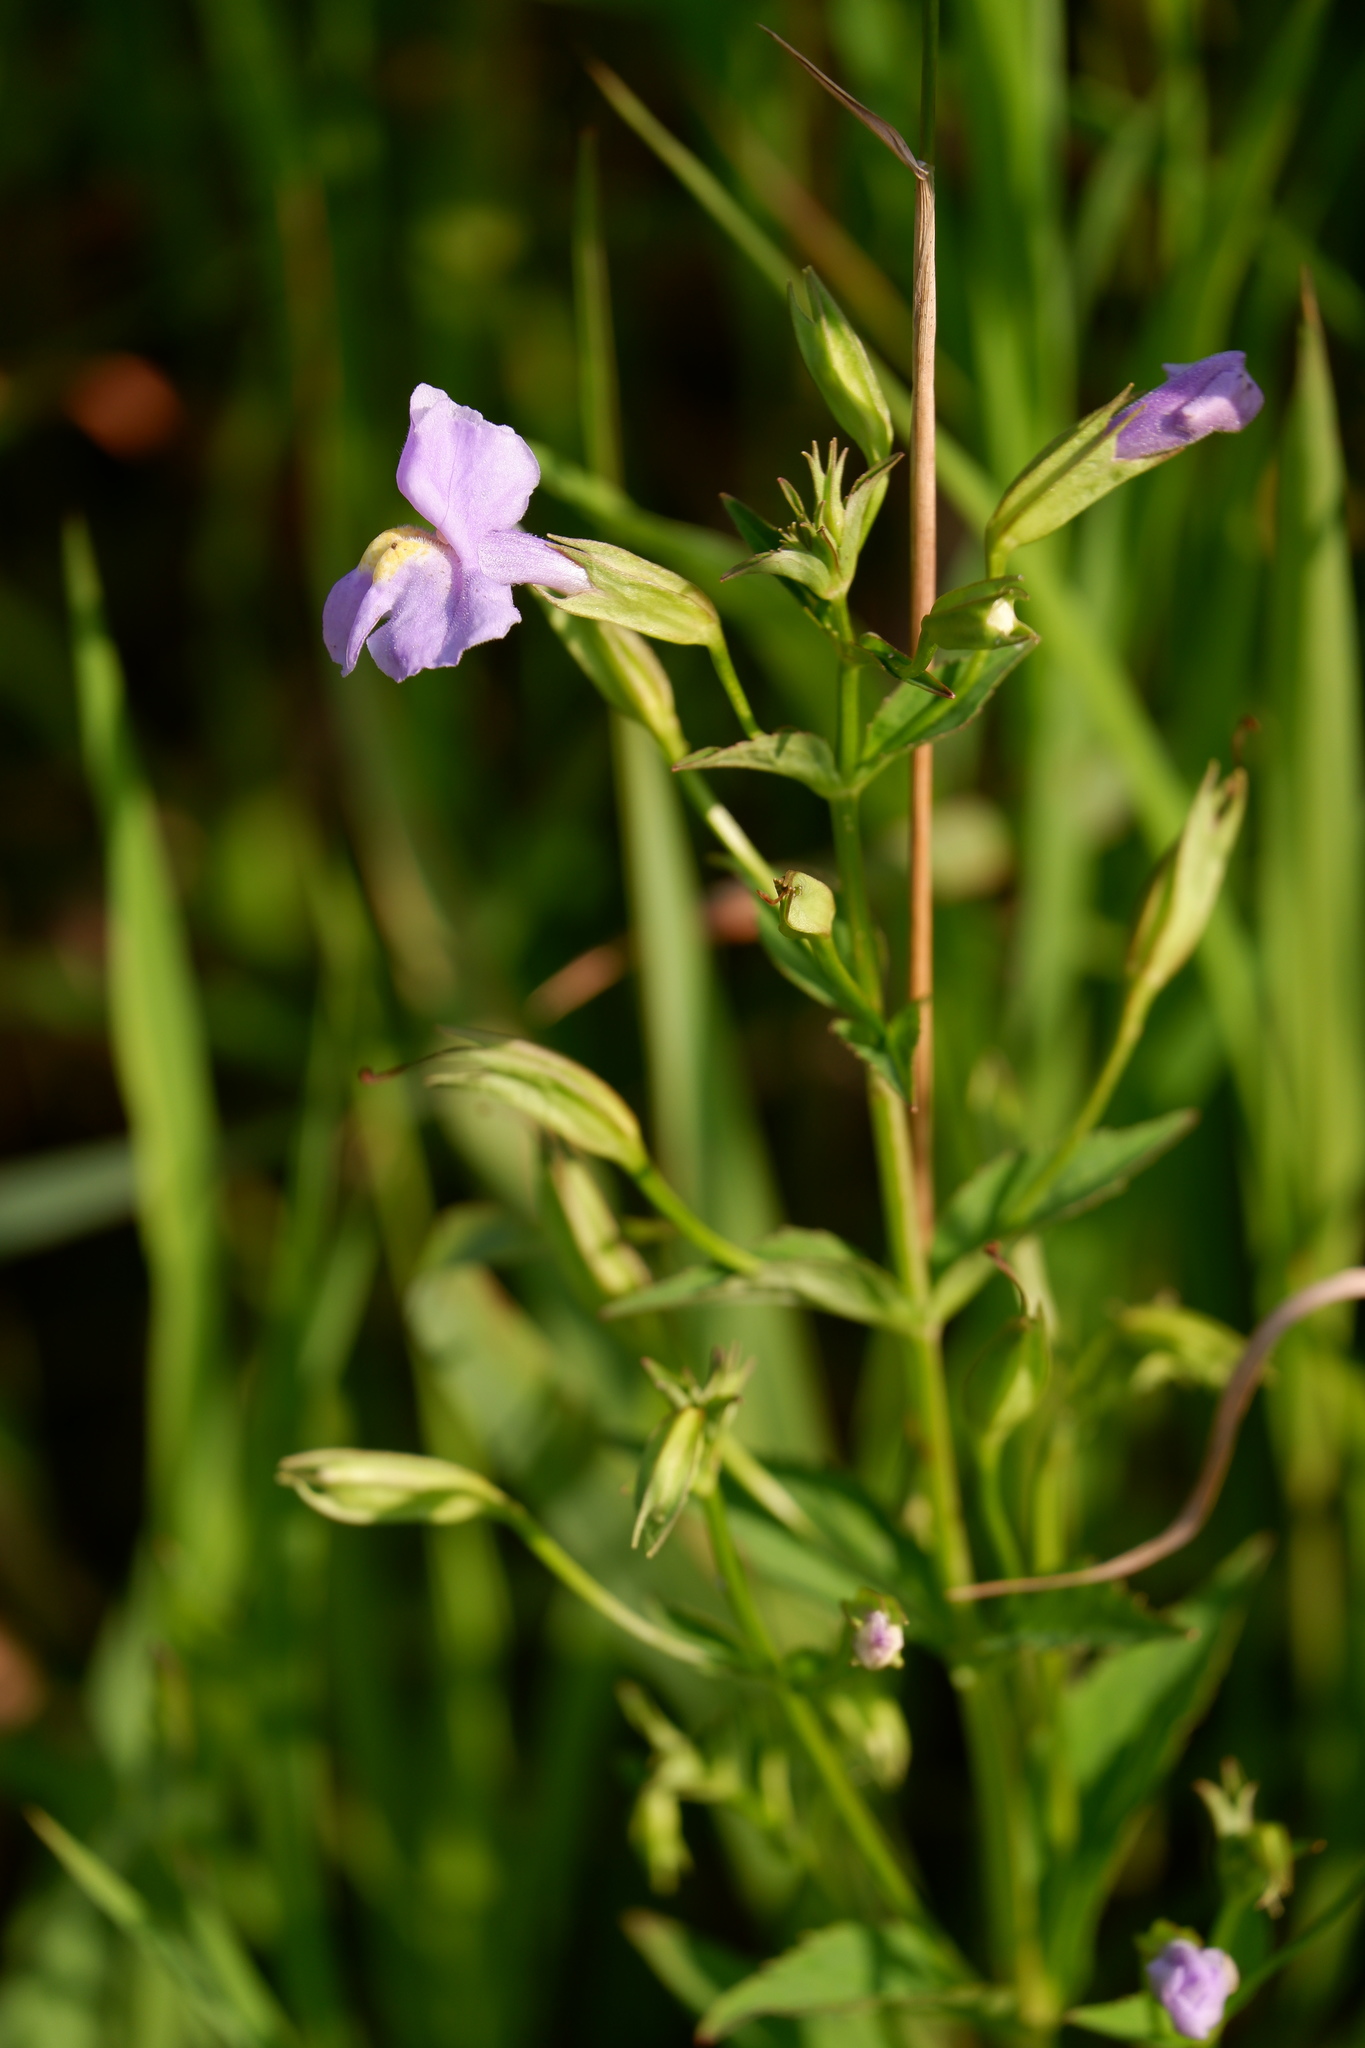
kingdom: Plantae
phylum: Tracheophyta
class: Magnoliopsida
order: Lamiales
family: Phrymaceae
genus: Mimulus
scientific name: Mimulus ringens
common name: Allegheny monkeyflower
